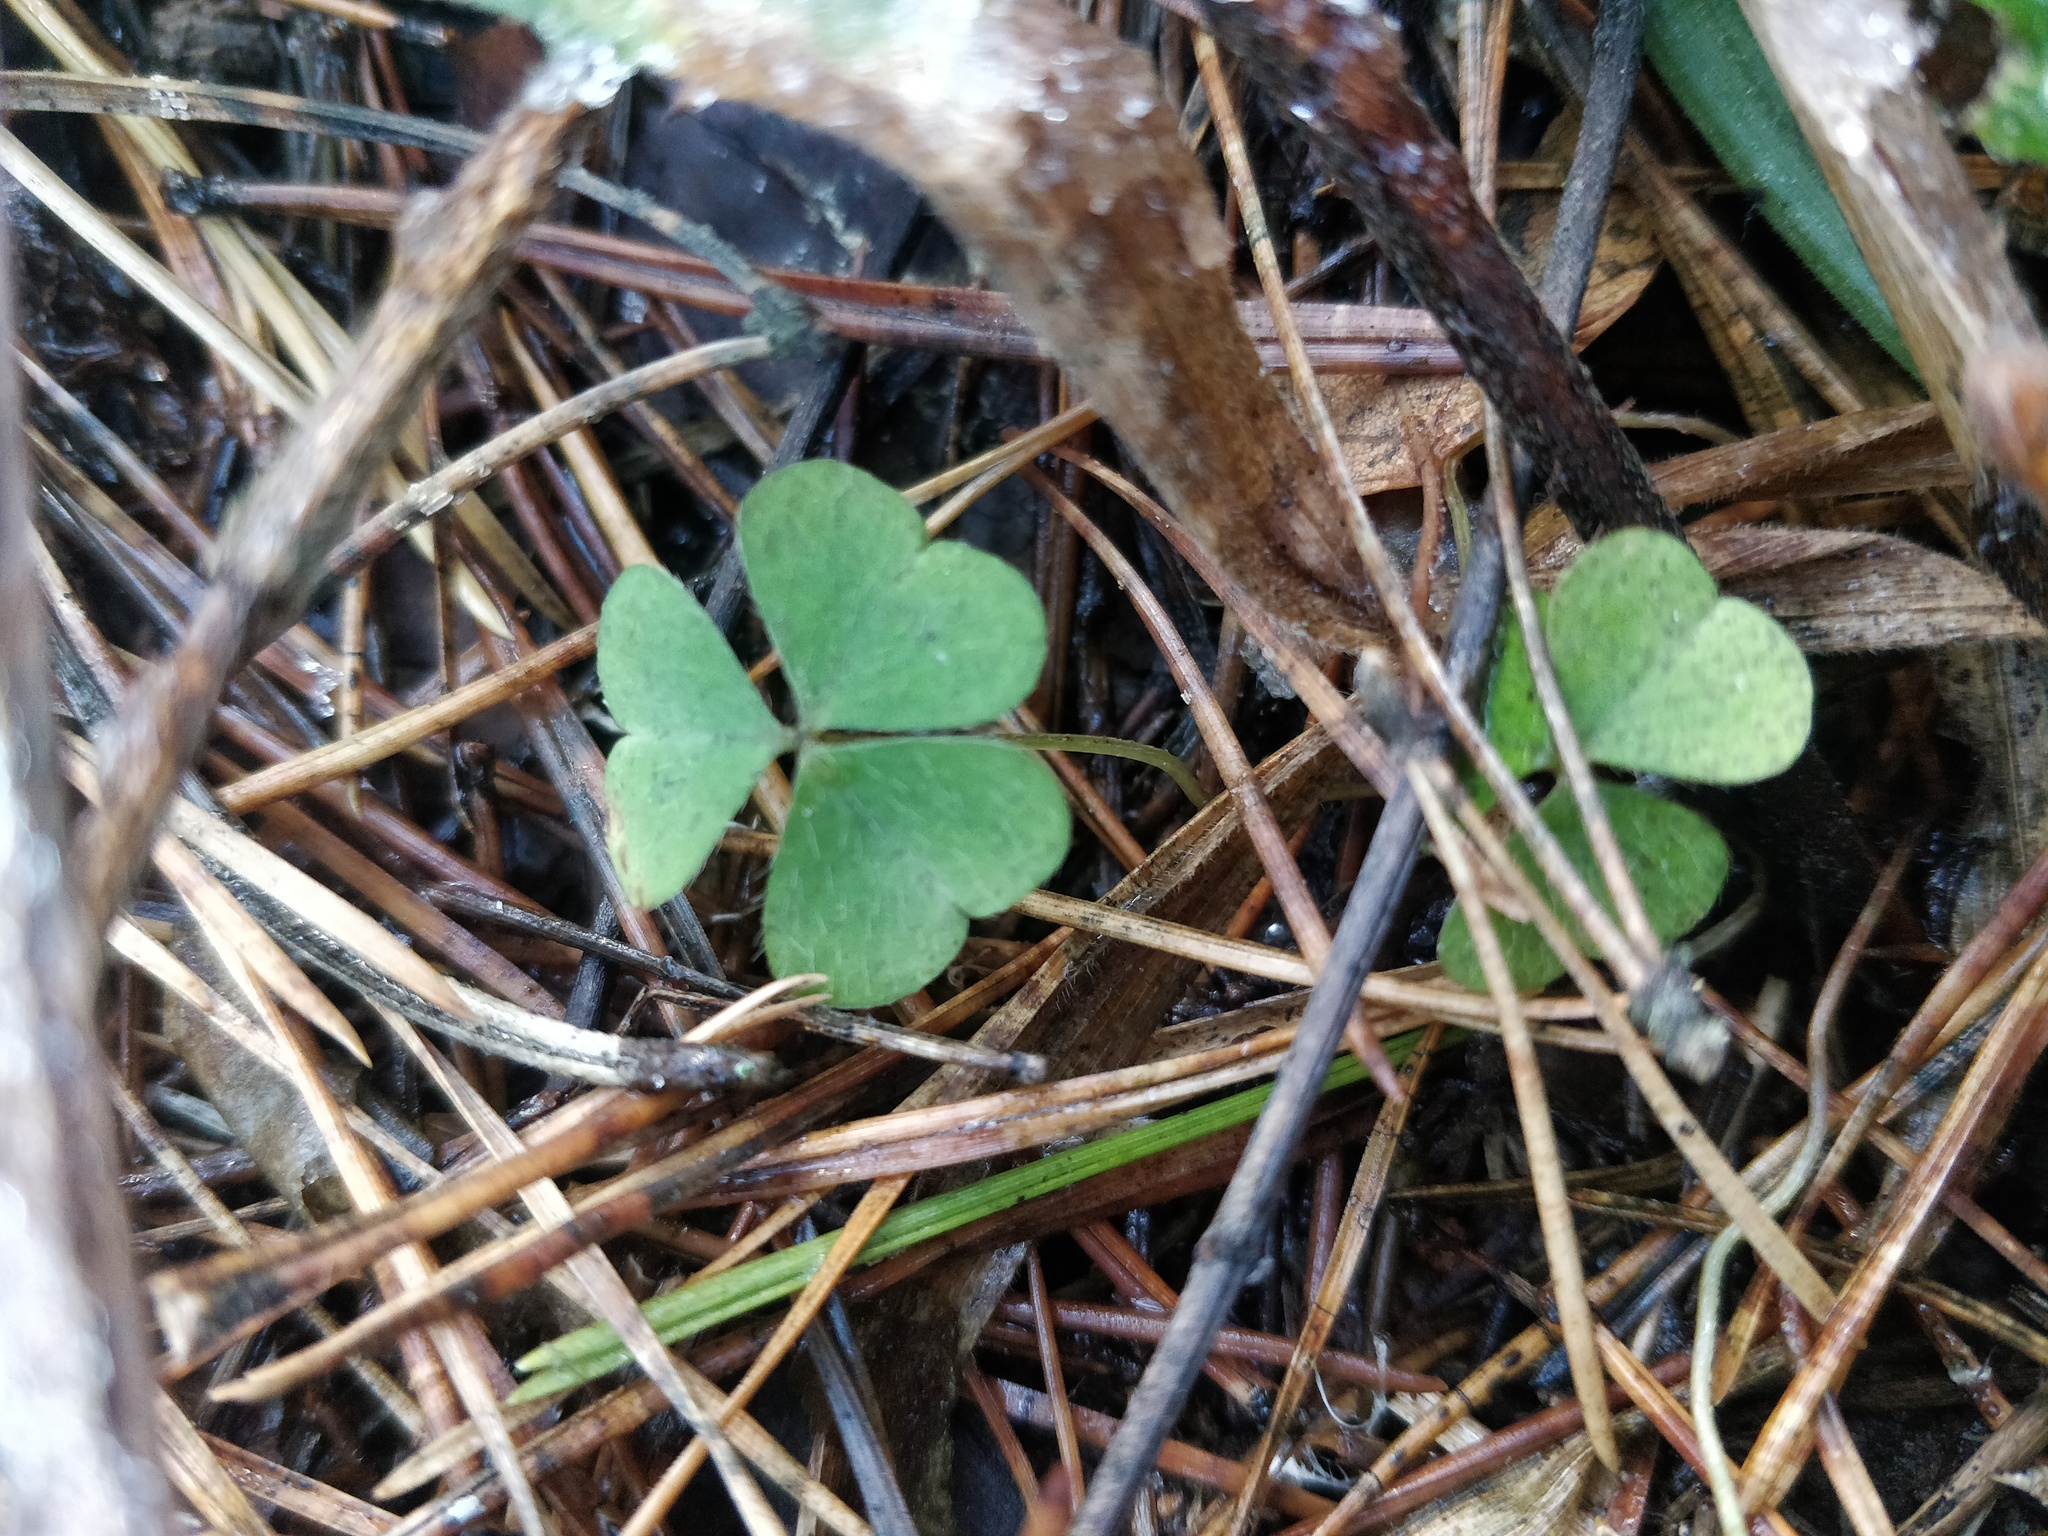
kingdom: Plantae
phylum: Tracheophyta
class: Magnoliopsida
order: Oxalidales
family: Oxalidaceae
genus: Oxalis
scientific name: Oxalis acetosella
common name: Wood-sorrel
